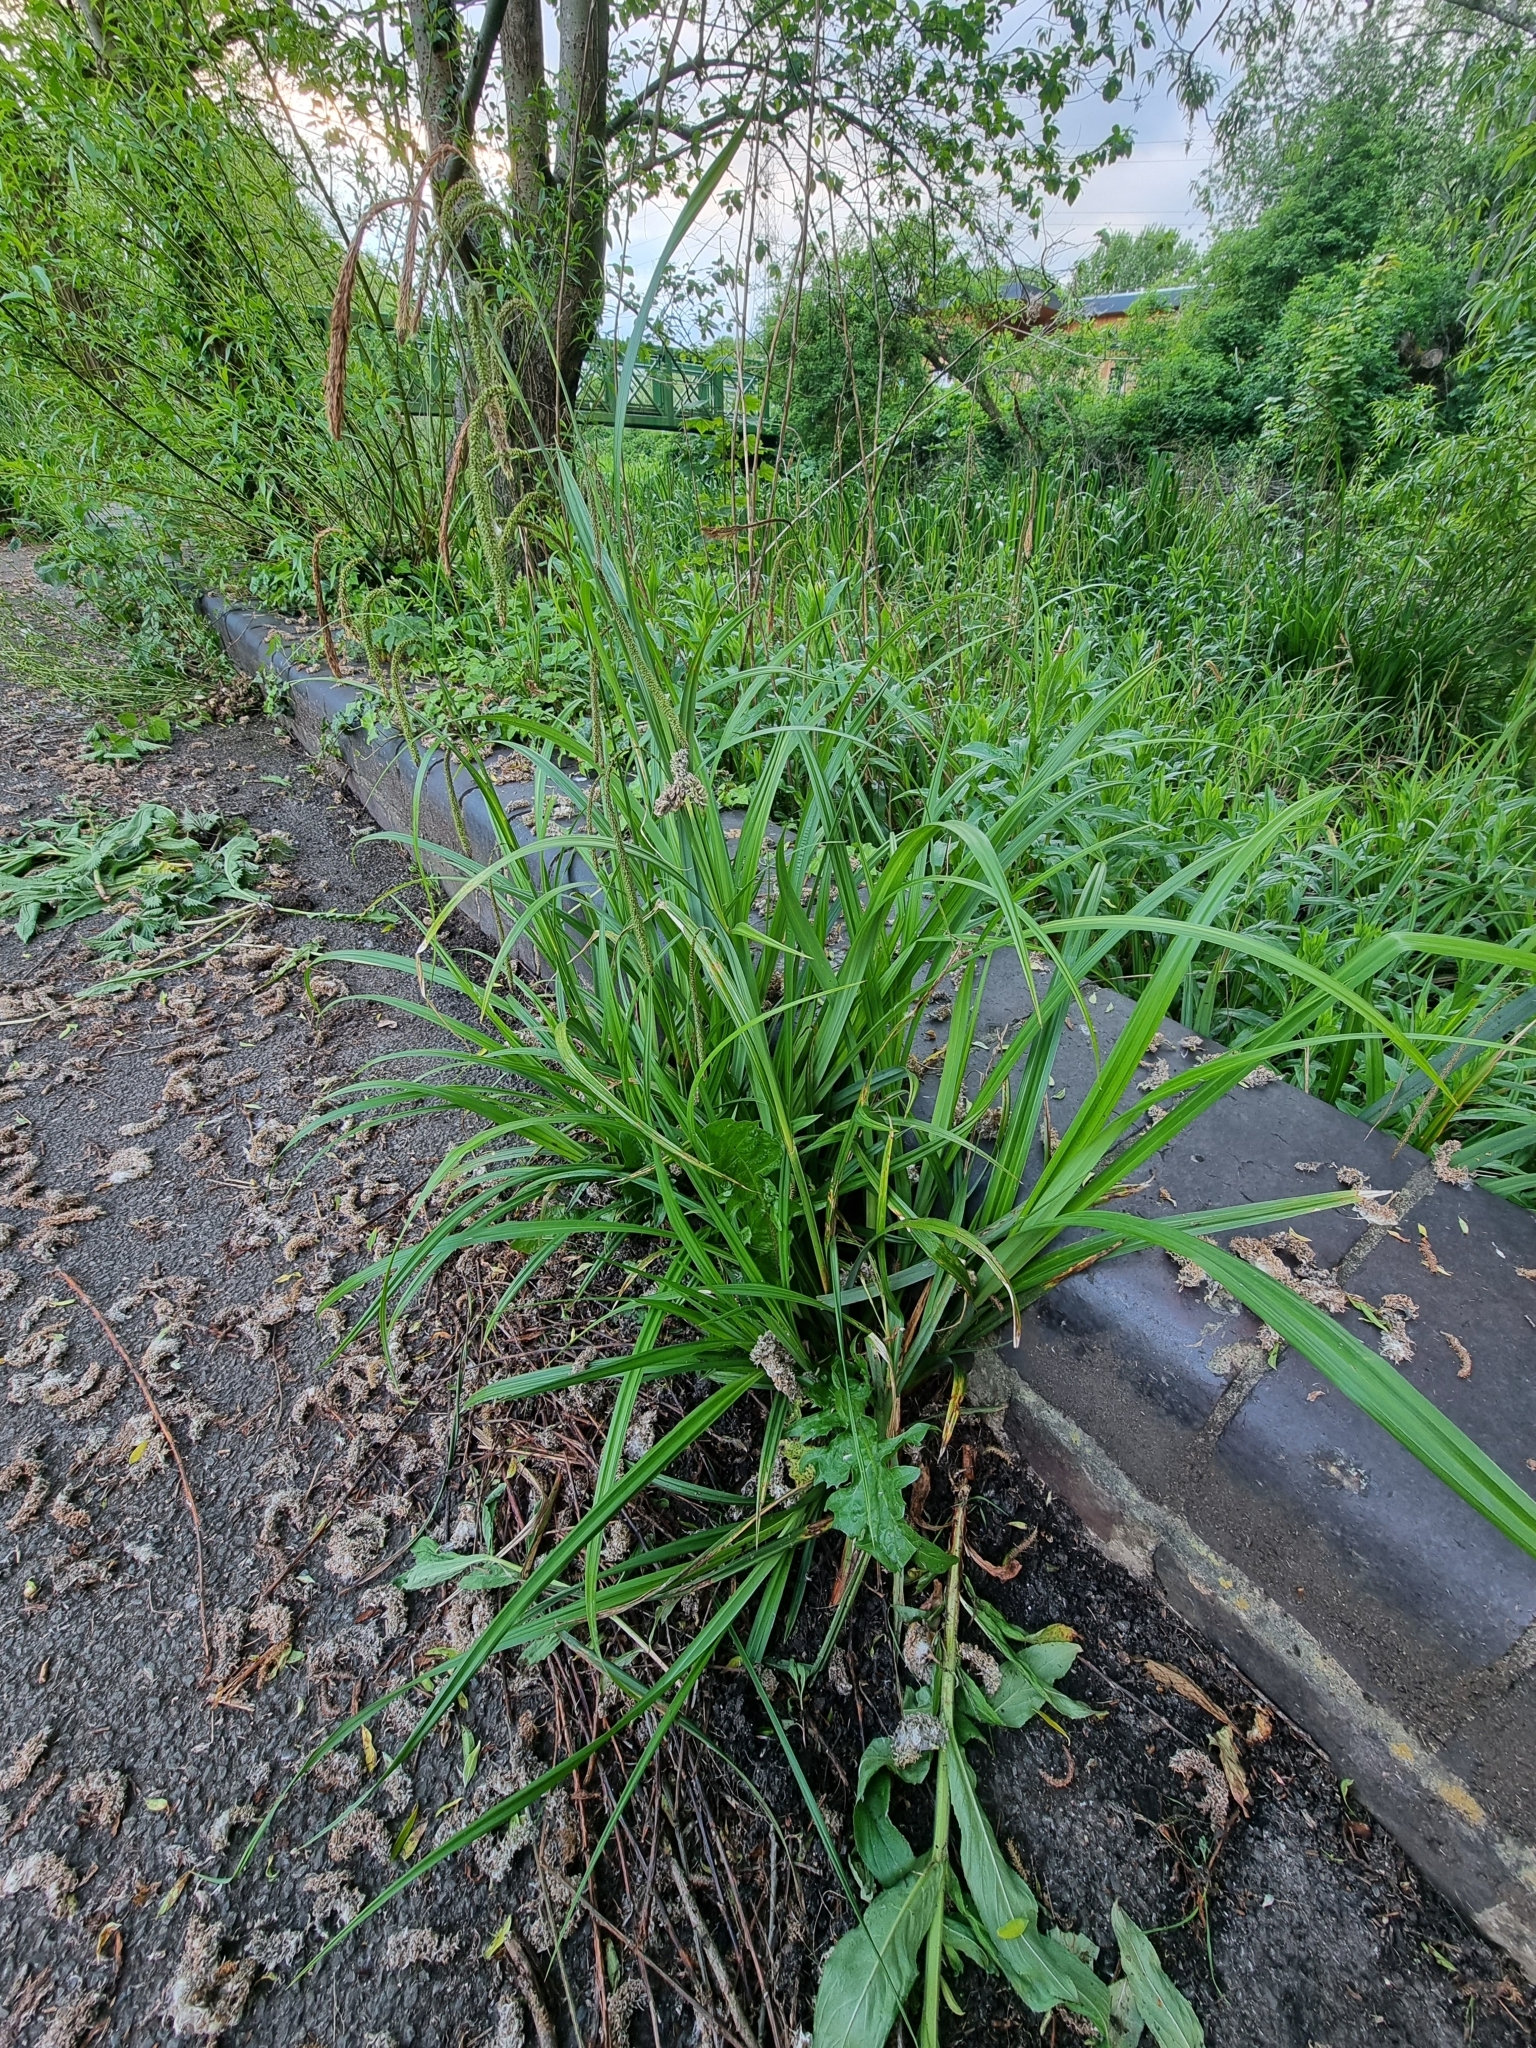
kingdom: Plantae
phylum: Tracheophyta
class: Liliopsida
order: Poales
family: Cyperaceae
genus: Carex
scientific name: Carex pendula
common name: Pendulous sedge
